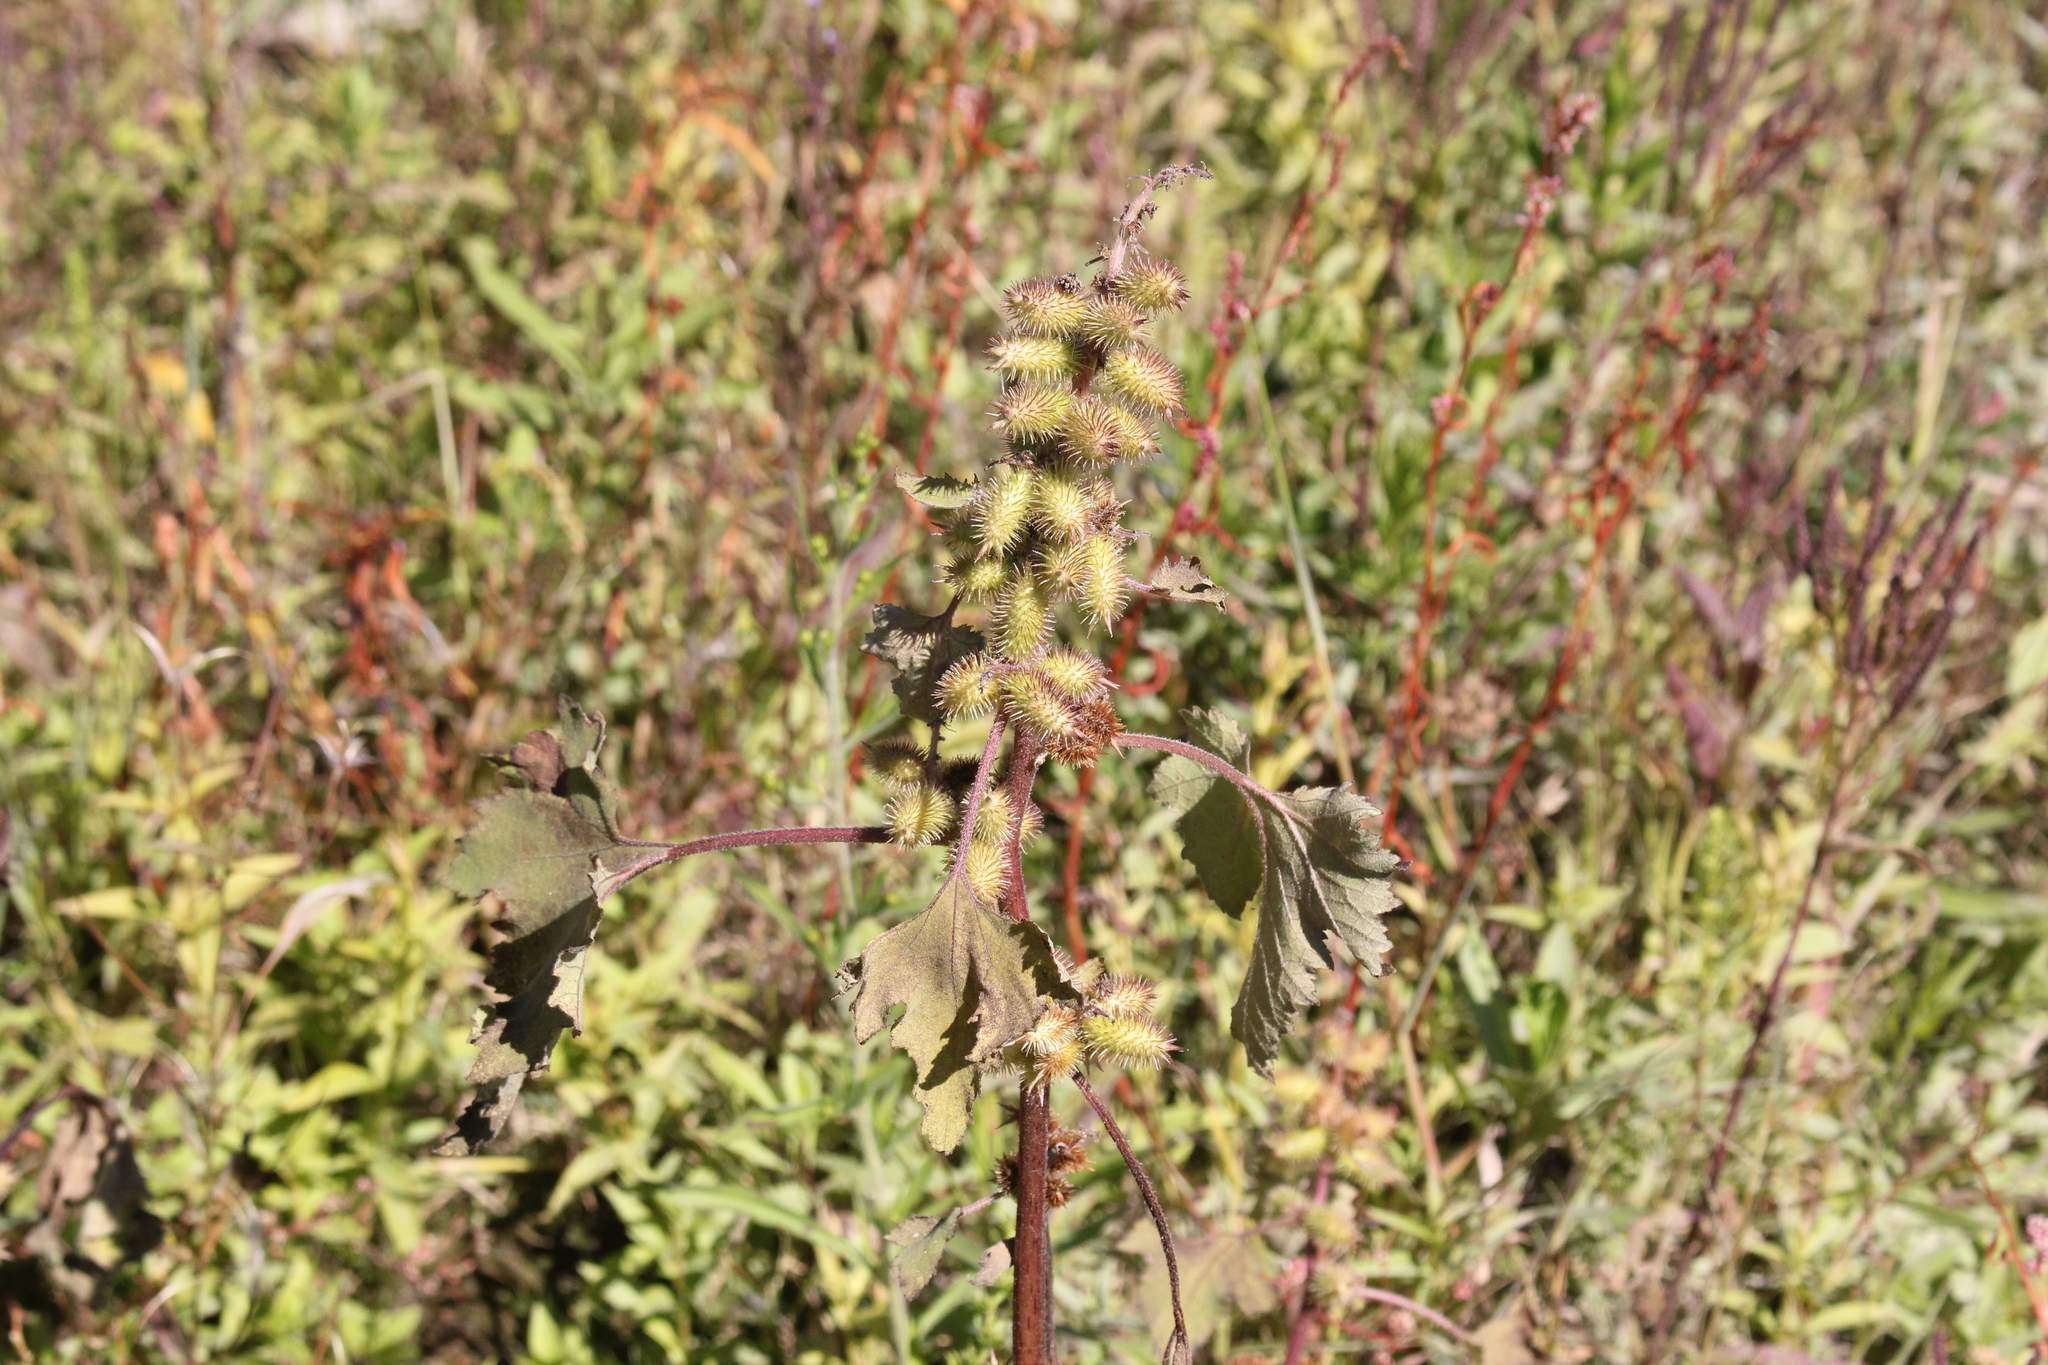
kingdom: Plantae
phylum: Tracheophyta
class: Magnoliopsida
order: Asterales
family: Asteraceae
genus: Xanthium
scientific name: Xanthium strumarium
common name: Rough cocklebur
